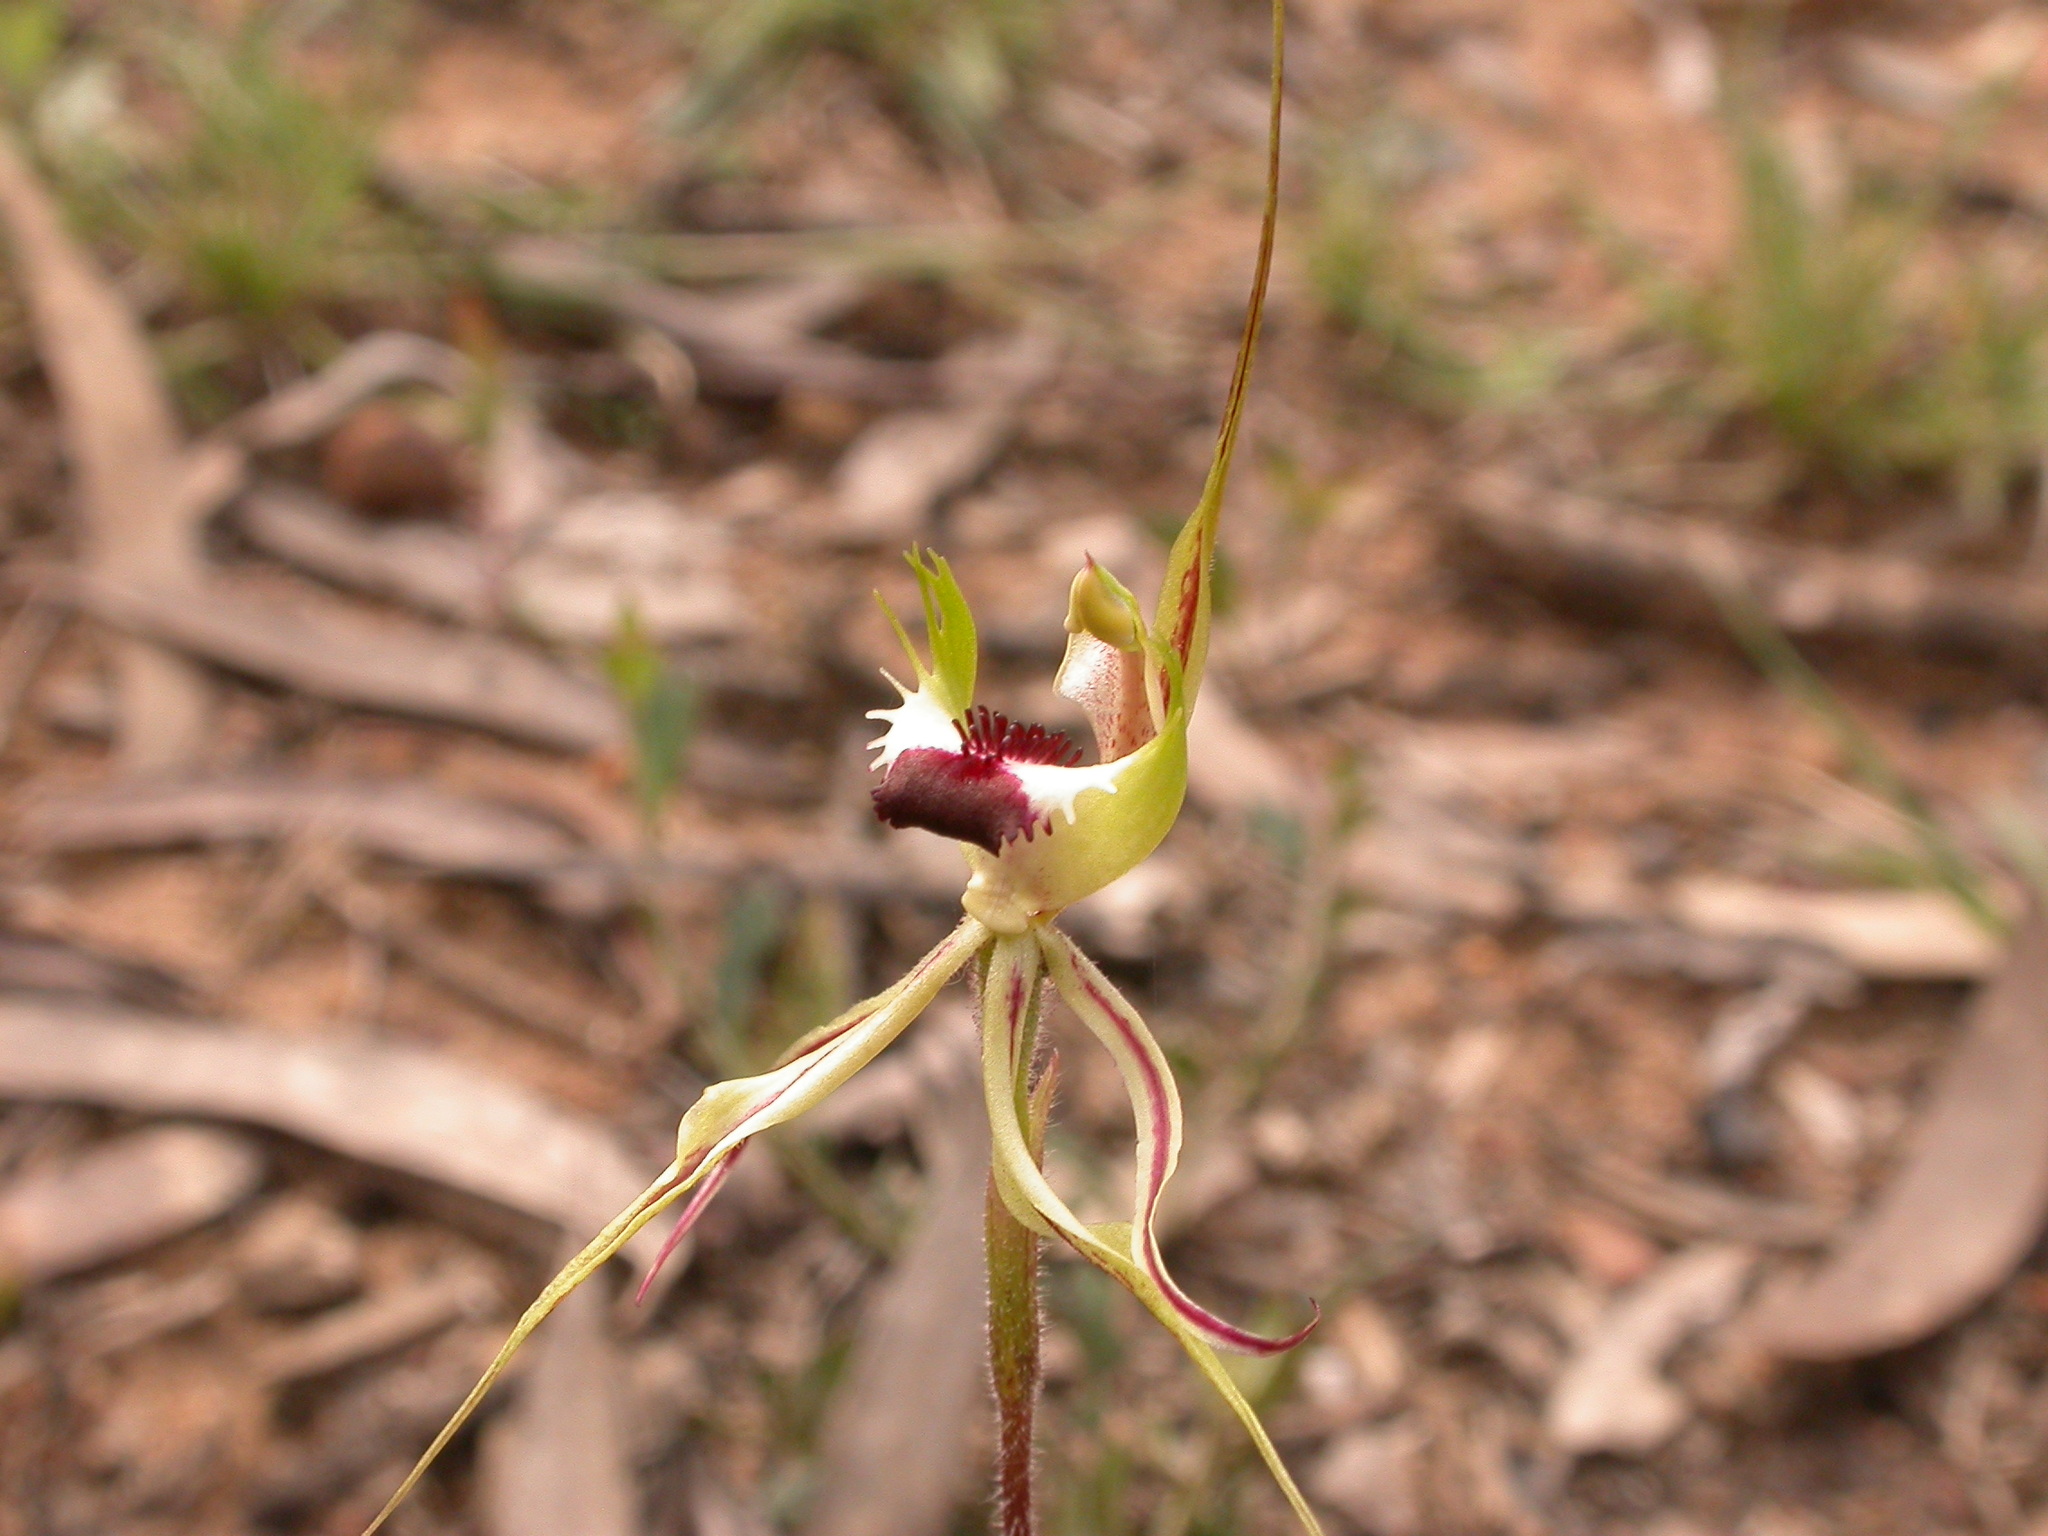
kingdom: Plantae
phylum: Tracheophyta
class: Liliopsida
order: Asparagales
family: Orchidaceae
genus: Caladenia
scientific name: Caladenia atrovespa
